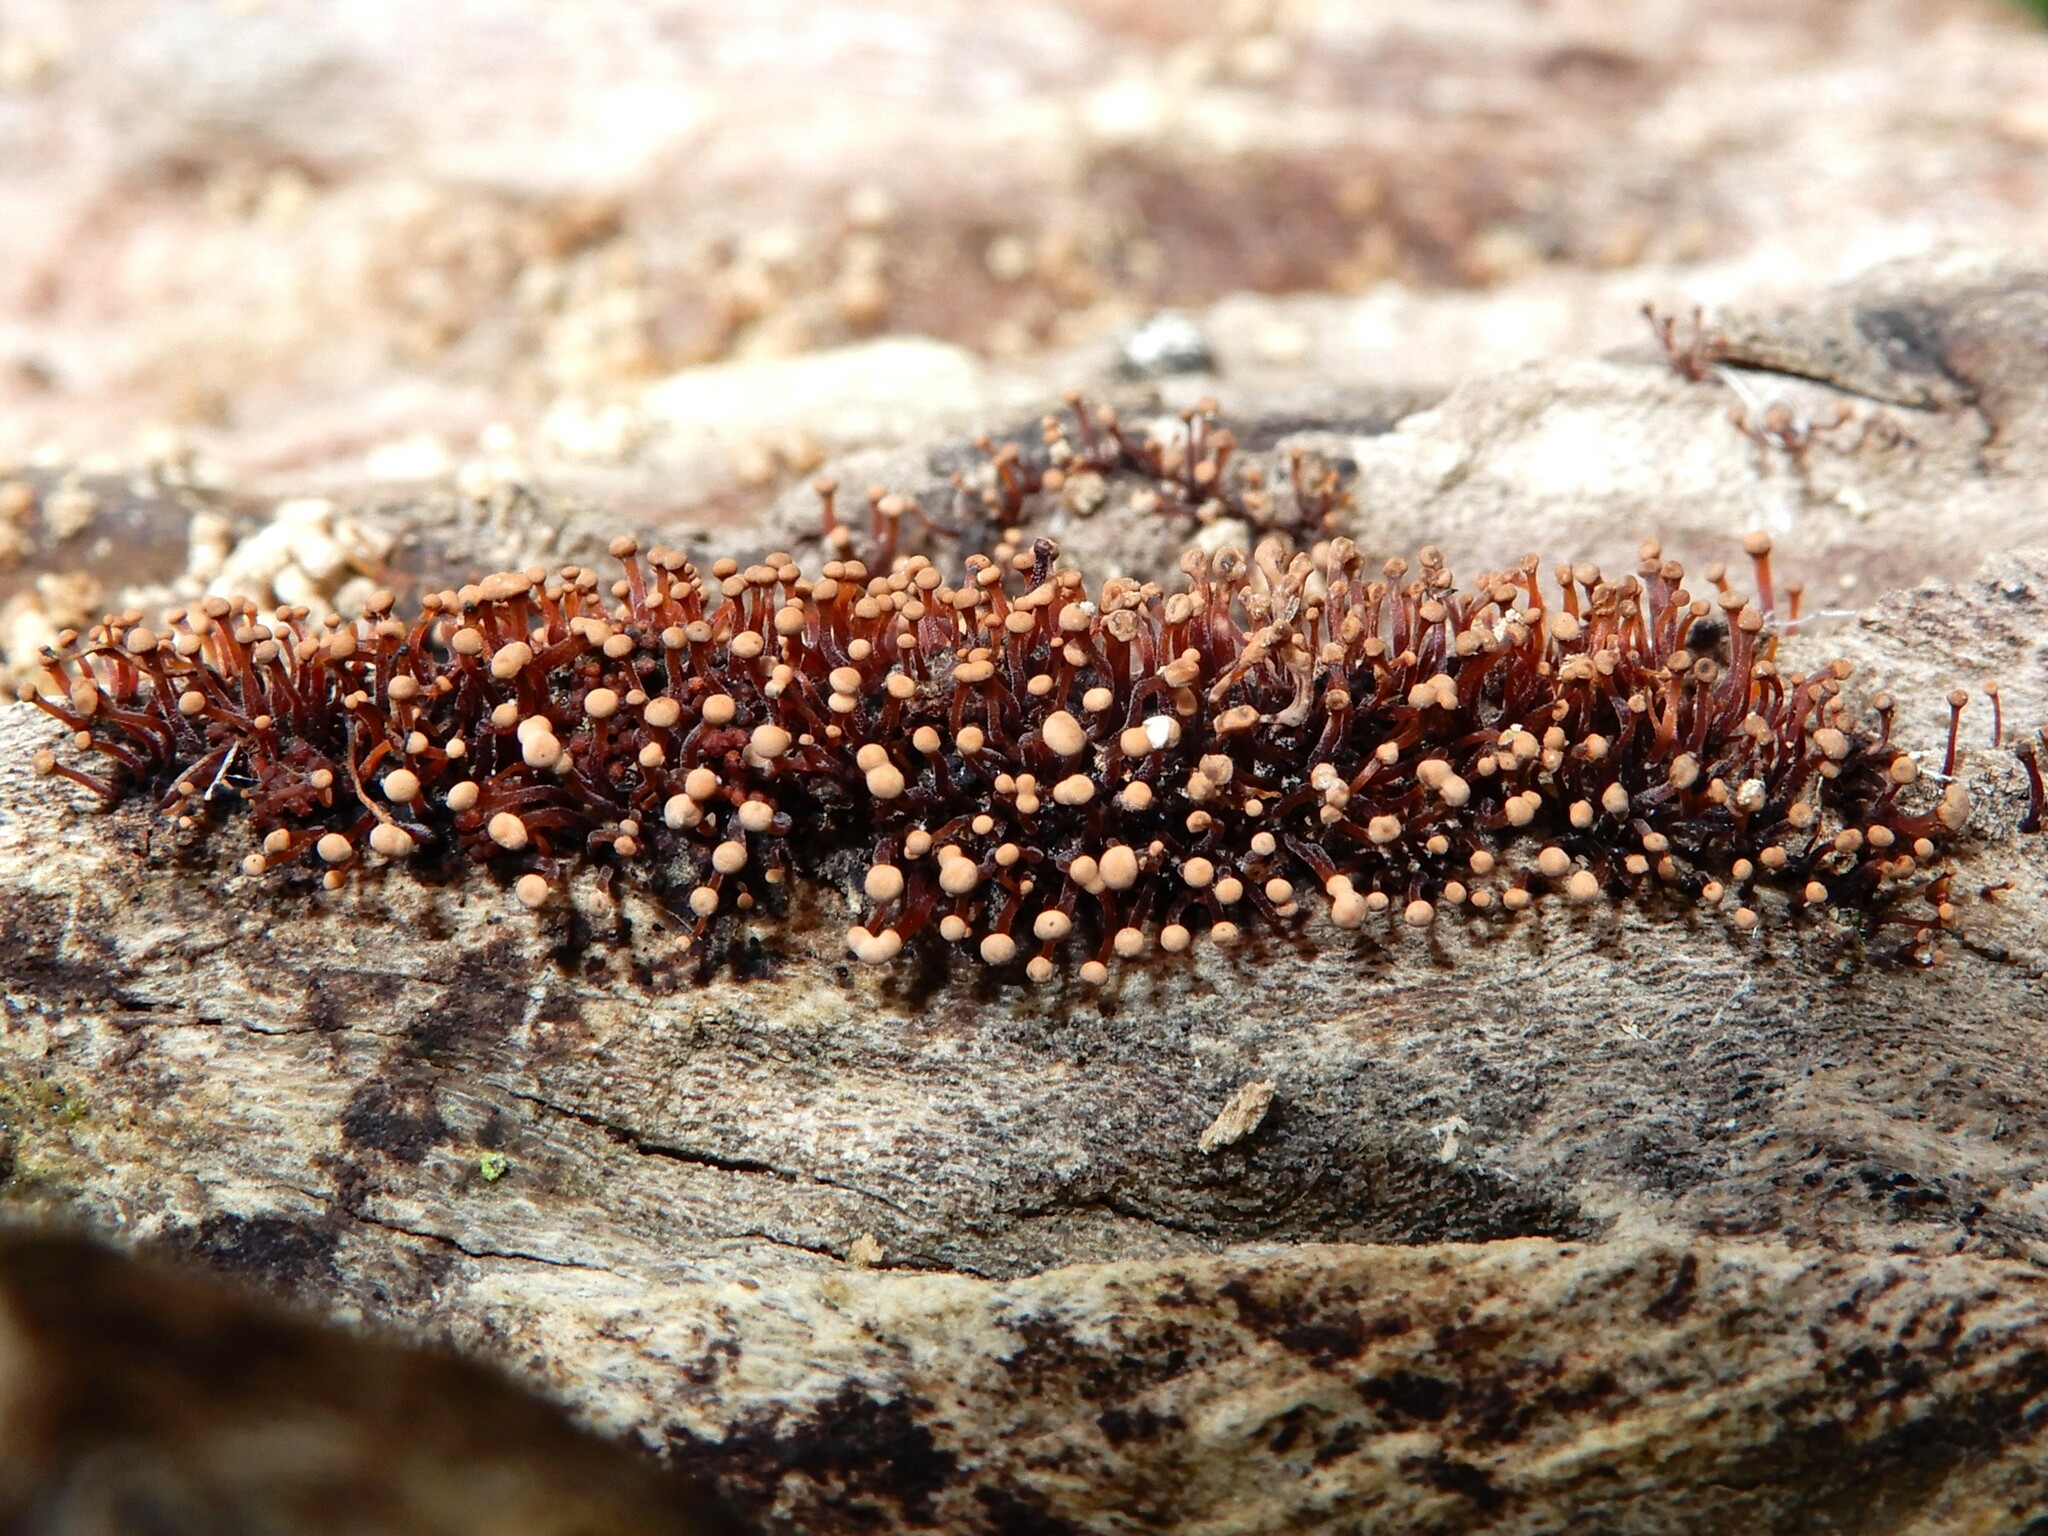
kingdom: Fungi
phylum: Ascomycota
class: Sordariomycetes
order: Hypocreales
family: Nectriaceae
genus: Murinectria
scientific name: Murinectria polythalama
